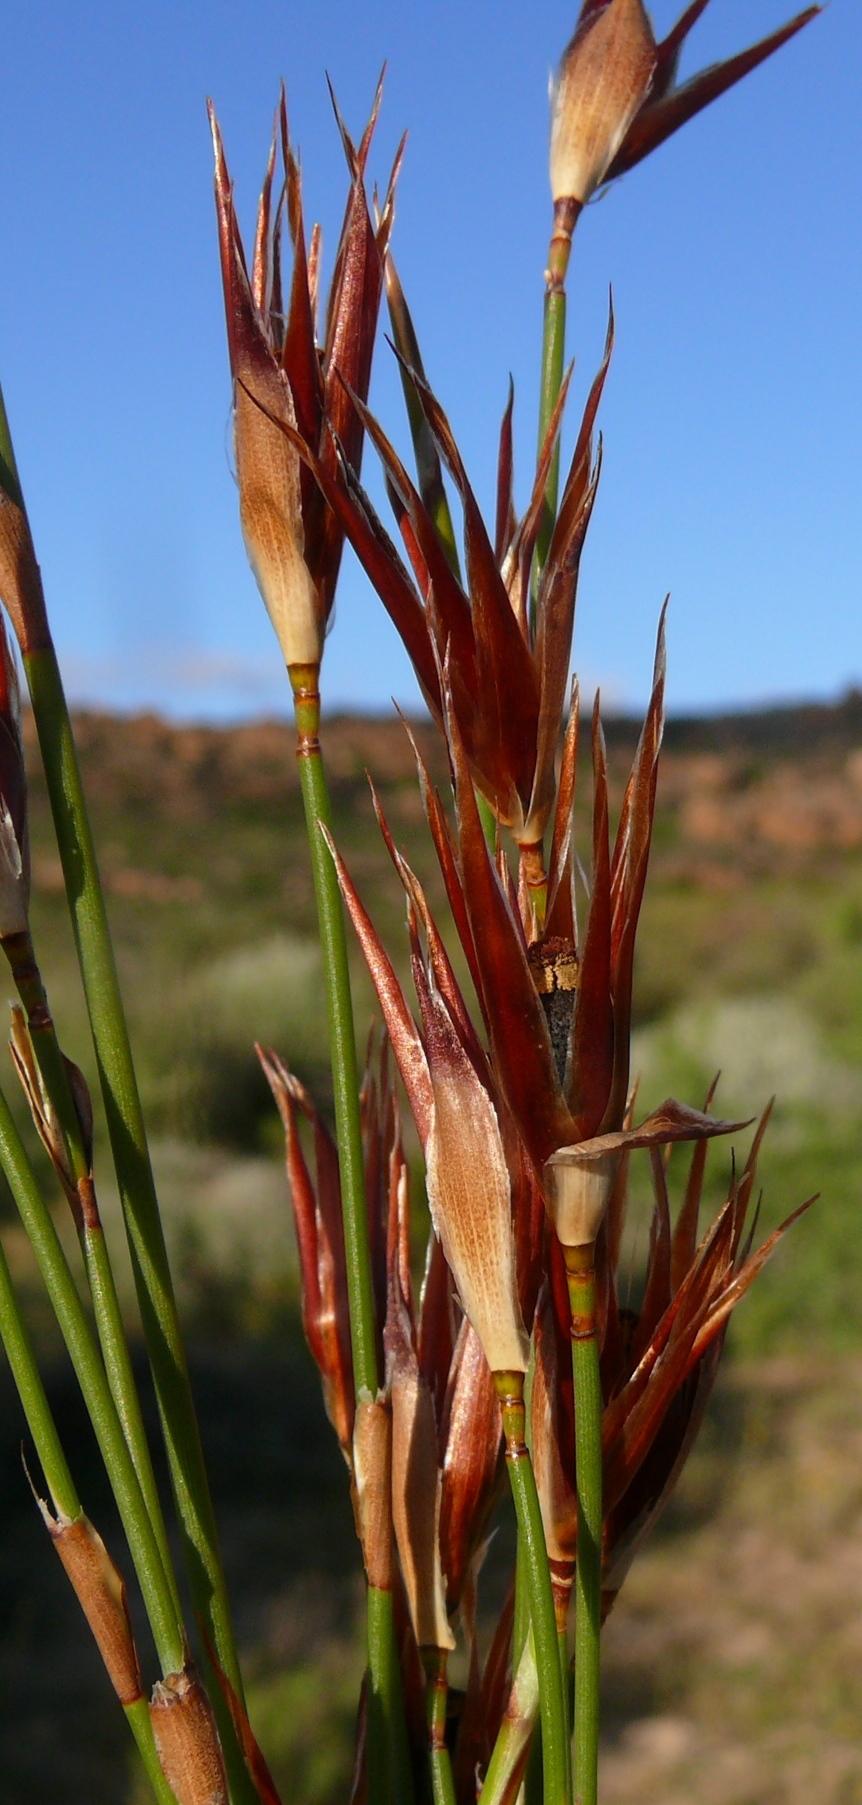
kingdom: Plantae
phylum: Tracheophyta
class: Liliopsida
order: Poales
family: Restionaceae
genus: Willdenowia
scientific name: Willdenowia incurvata
